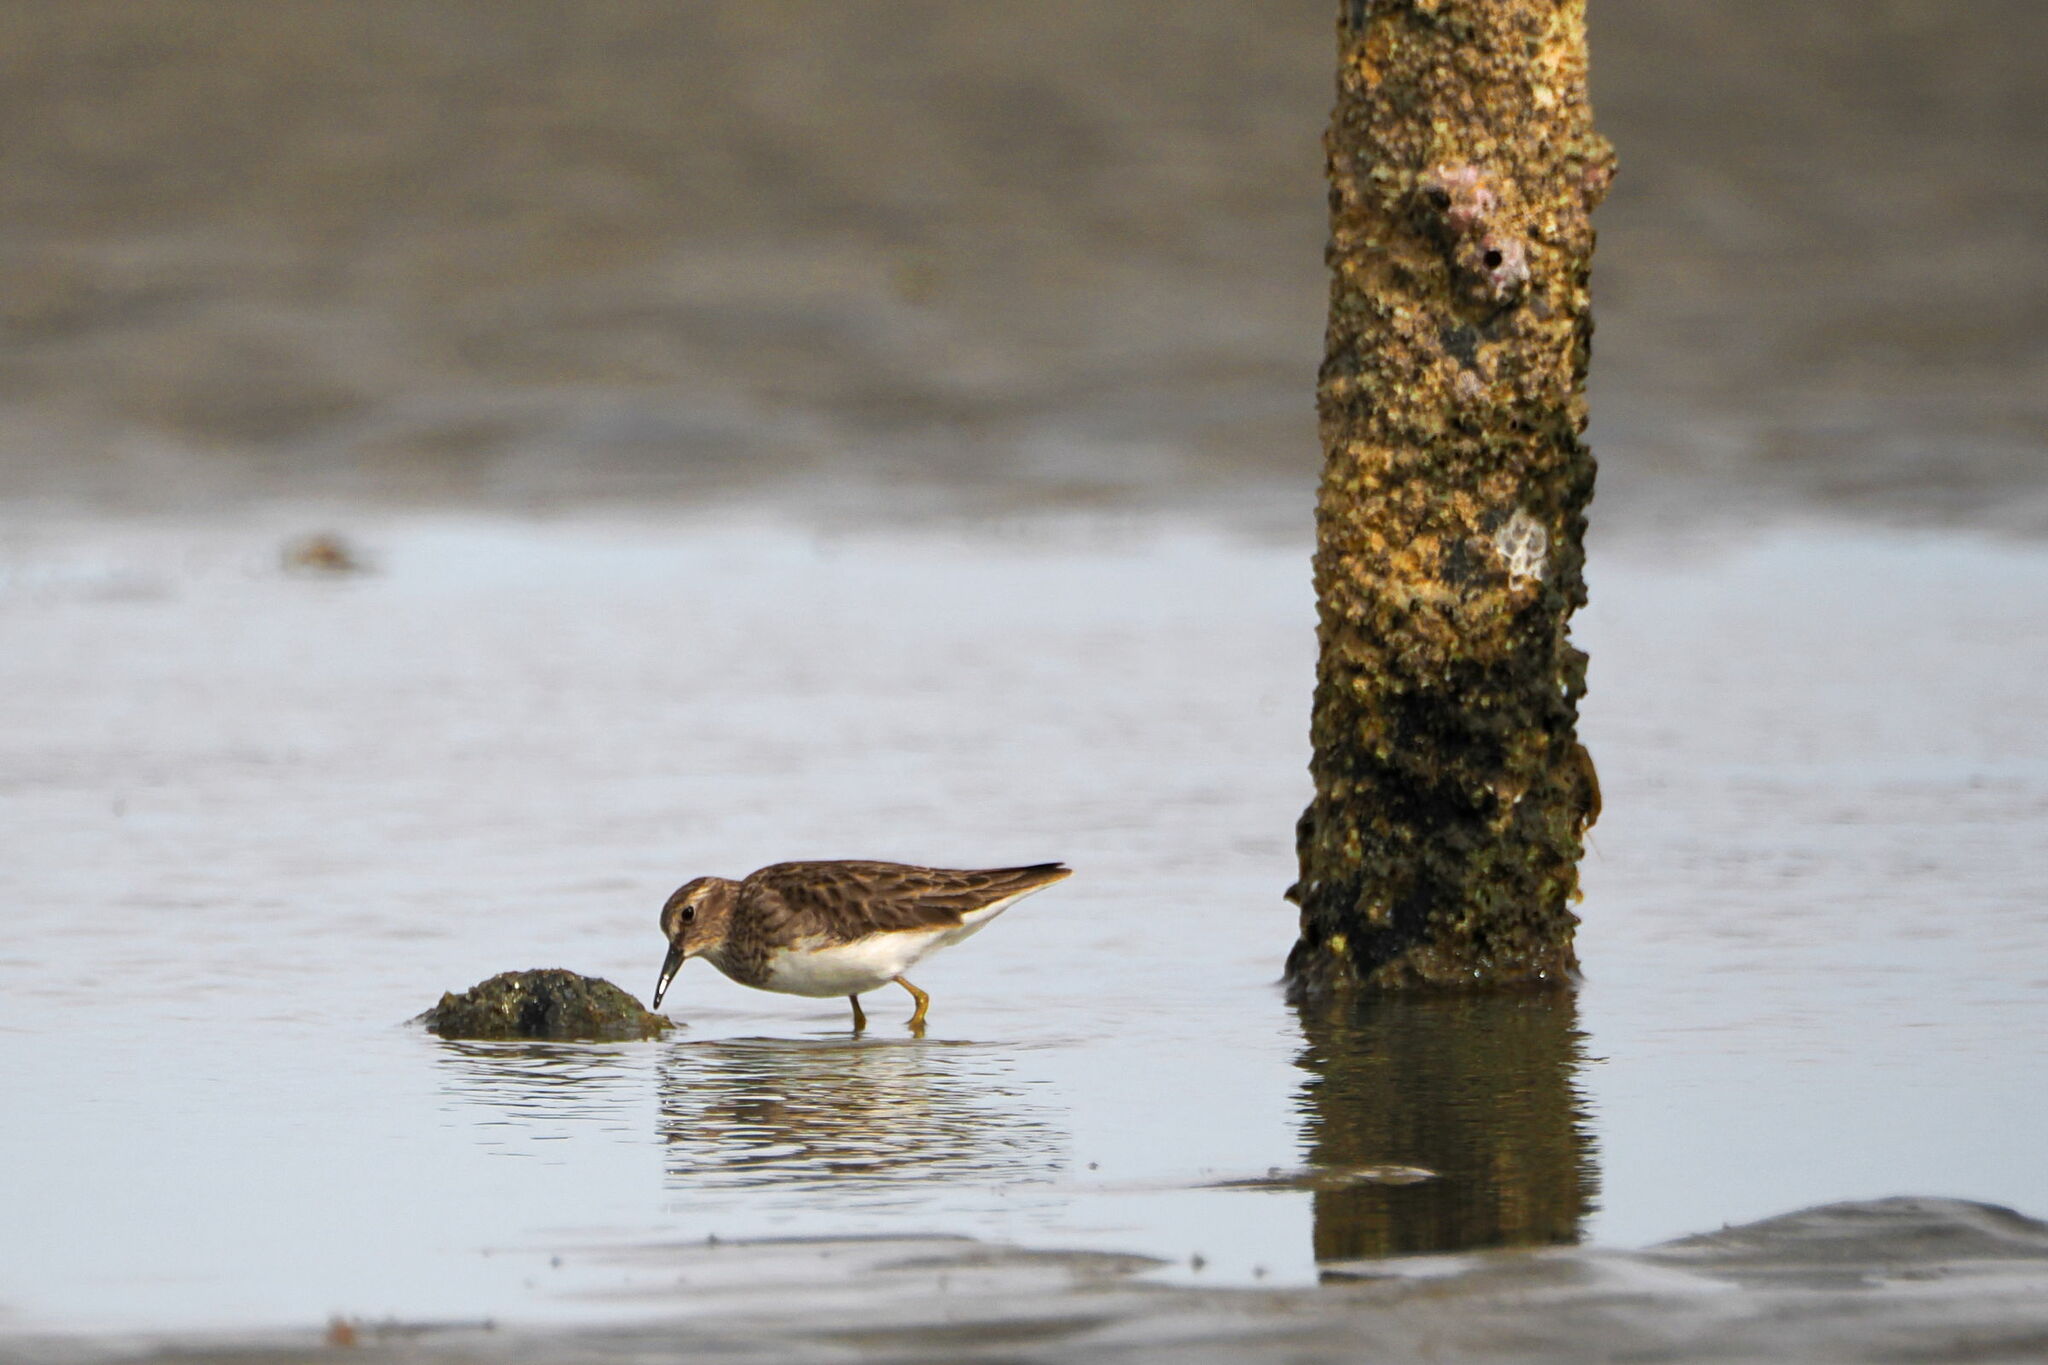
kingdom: Animalia
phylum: Chordata
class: Aves
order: Charadriiformes
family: Scolopacidae
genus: Calidris
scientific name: Calidris minutilla
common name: Least sandpiper
